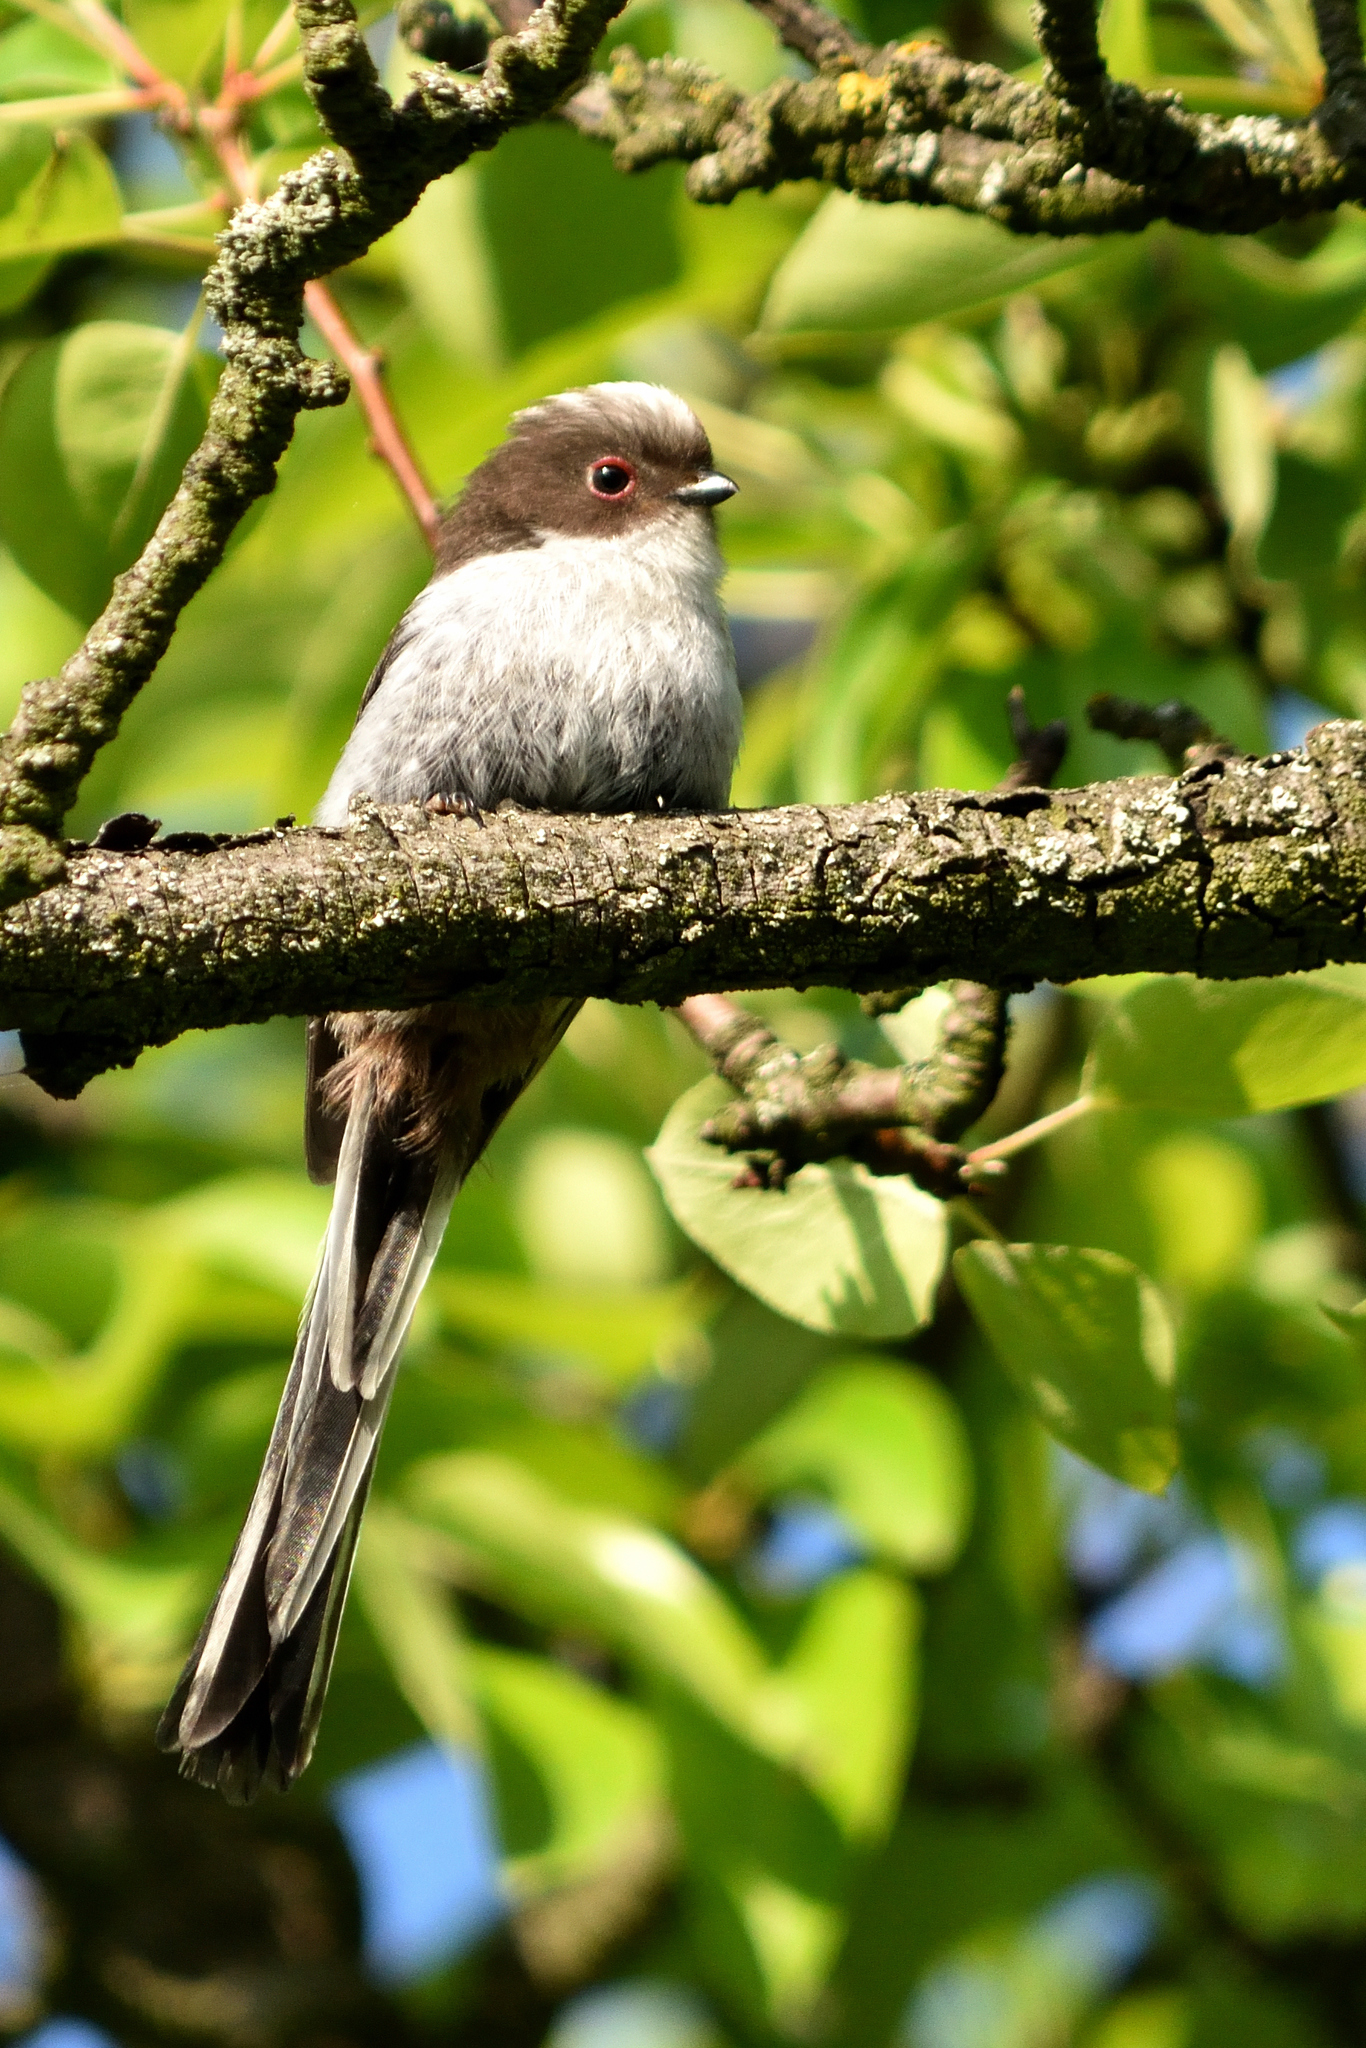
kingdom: Animalia
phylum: Chordata
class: Aves
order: Passeriformes
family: Aegithalidae
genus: Aegithalos
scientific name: Aegithalos caudatus
